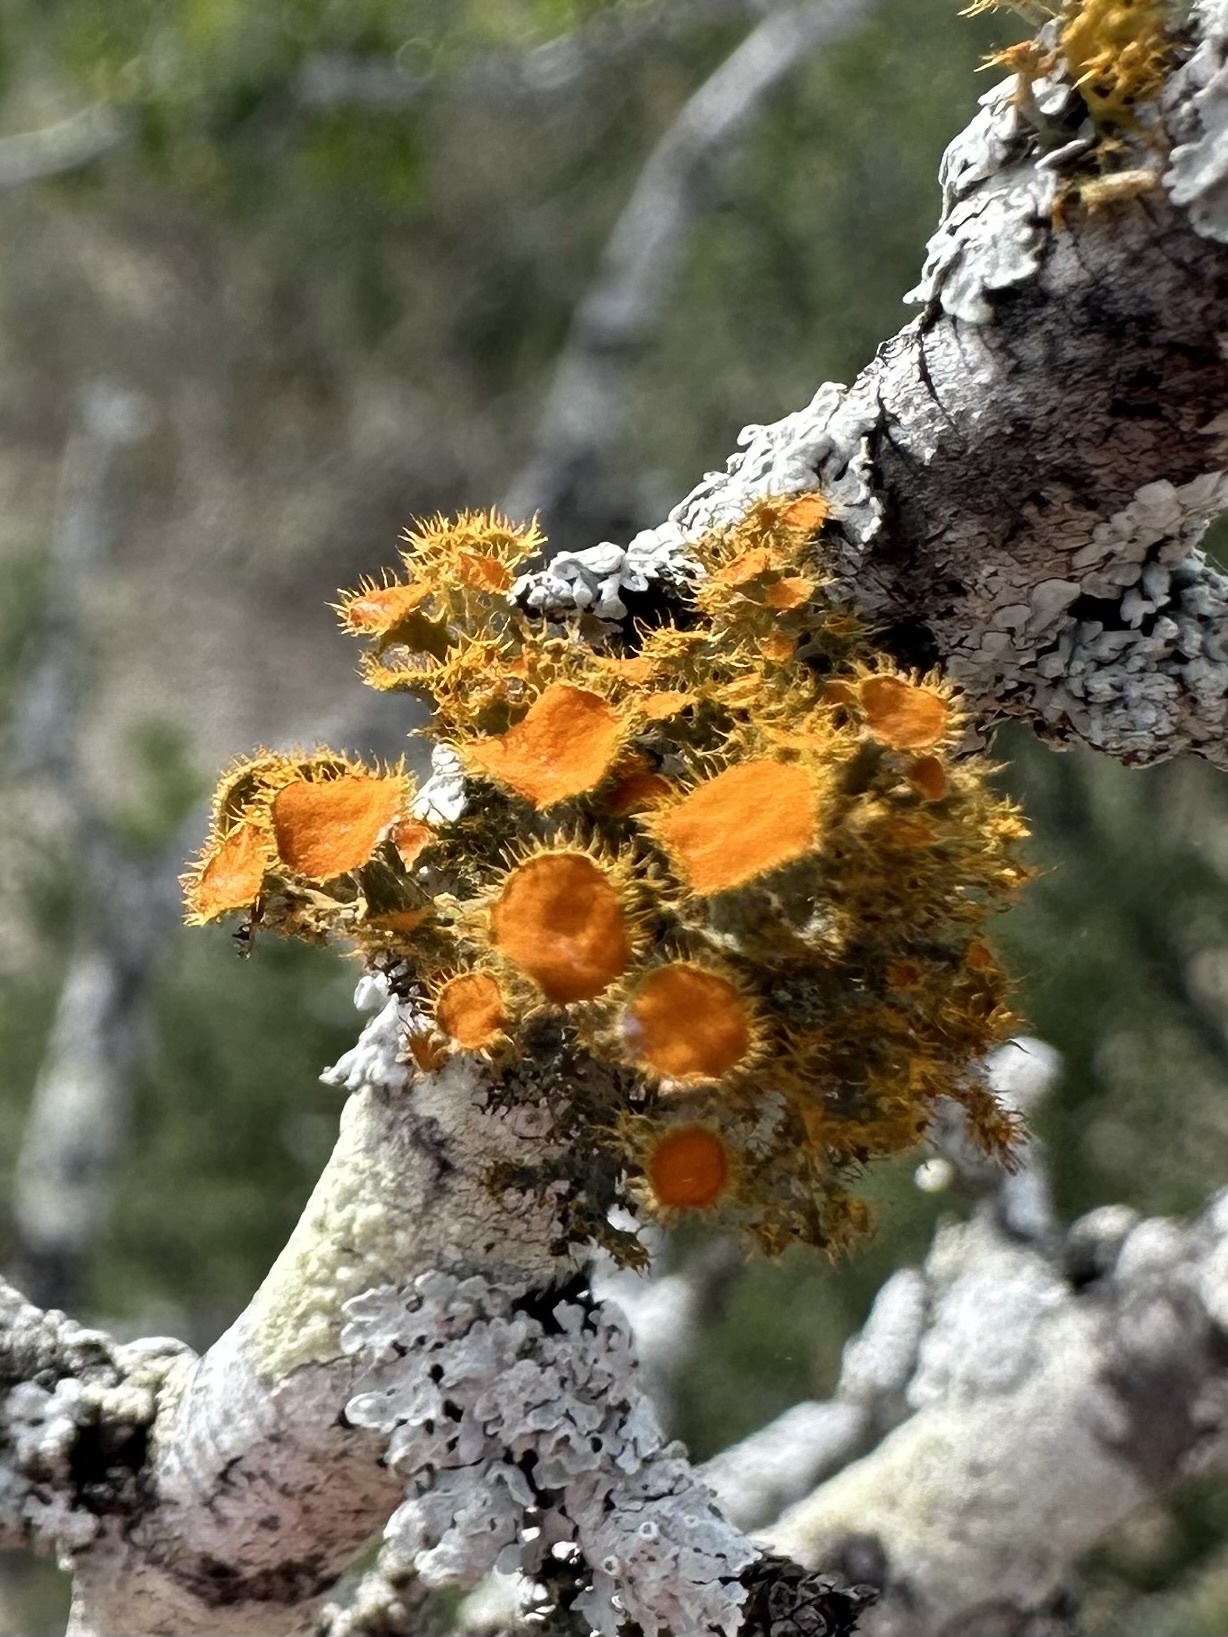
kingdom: Fungi
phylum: Ascomycota
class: Lecanoromycetes
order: Teloschistales
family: Teloschistaceae
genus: Niorma
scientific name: Niorma chrysophthalma
